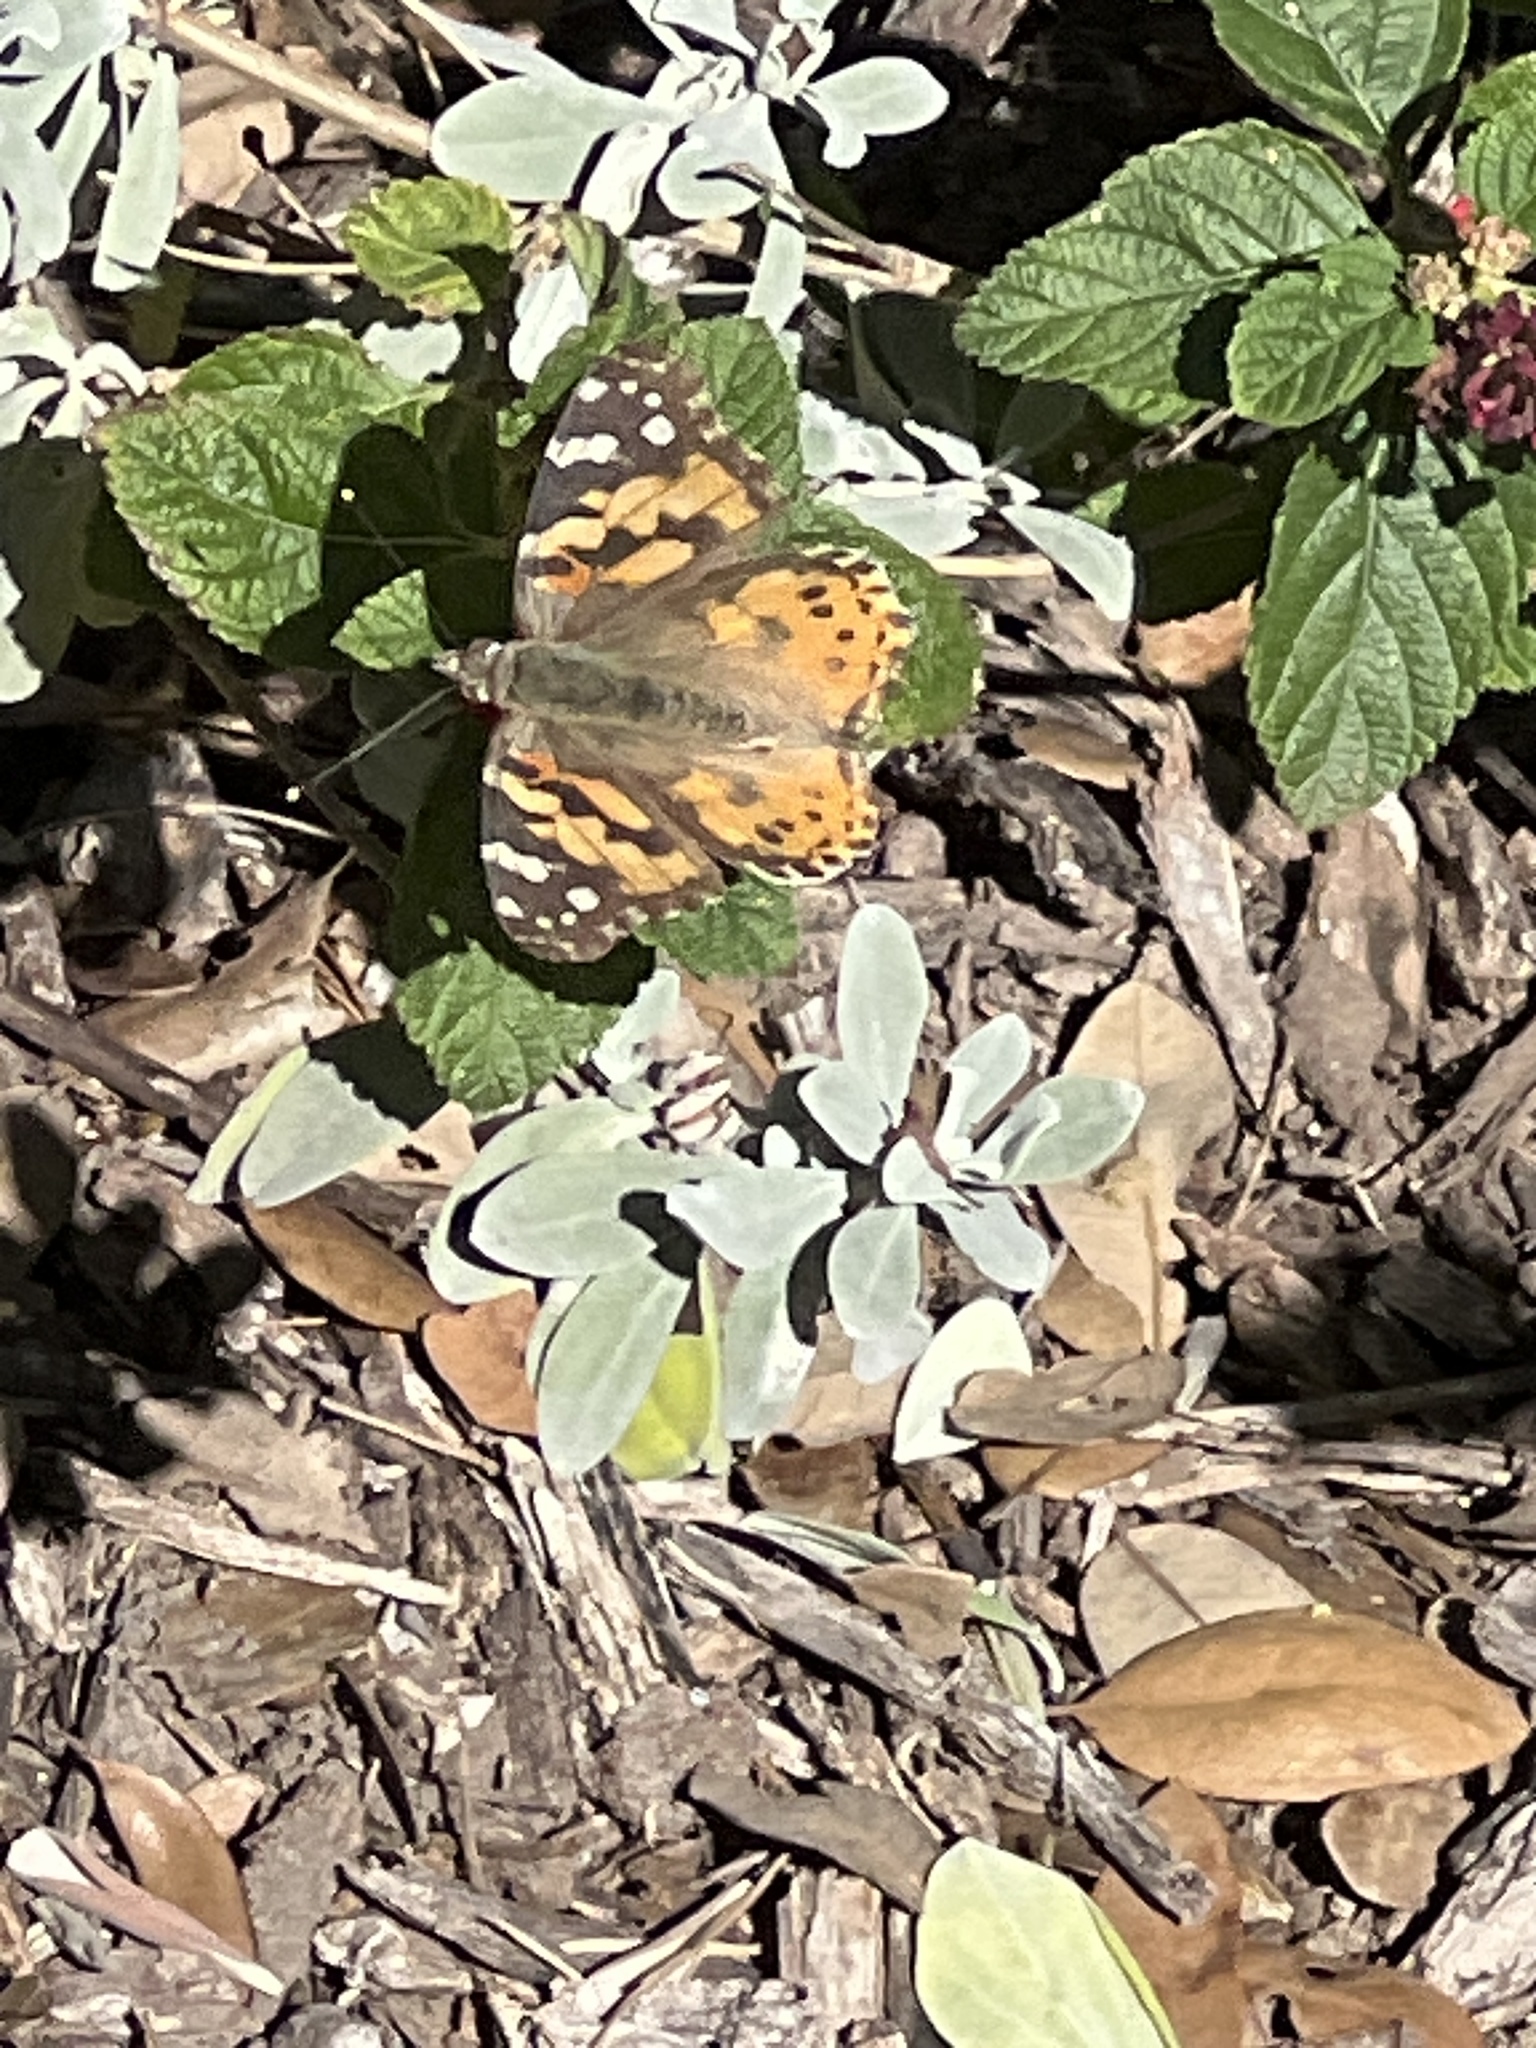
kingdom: Animalia
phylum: Arthropoda
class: Insecta
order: Lepidoptera
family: Nymphalidae
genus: Vanessa
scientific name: Vanessa cardui
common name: Painted lady
